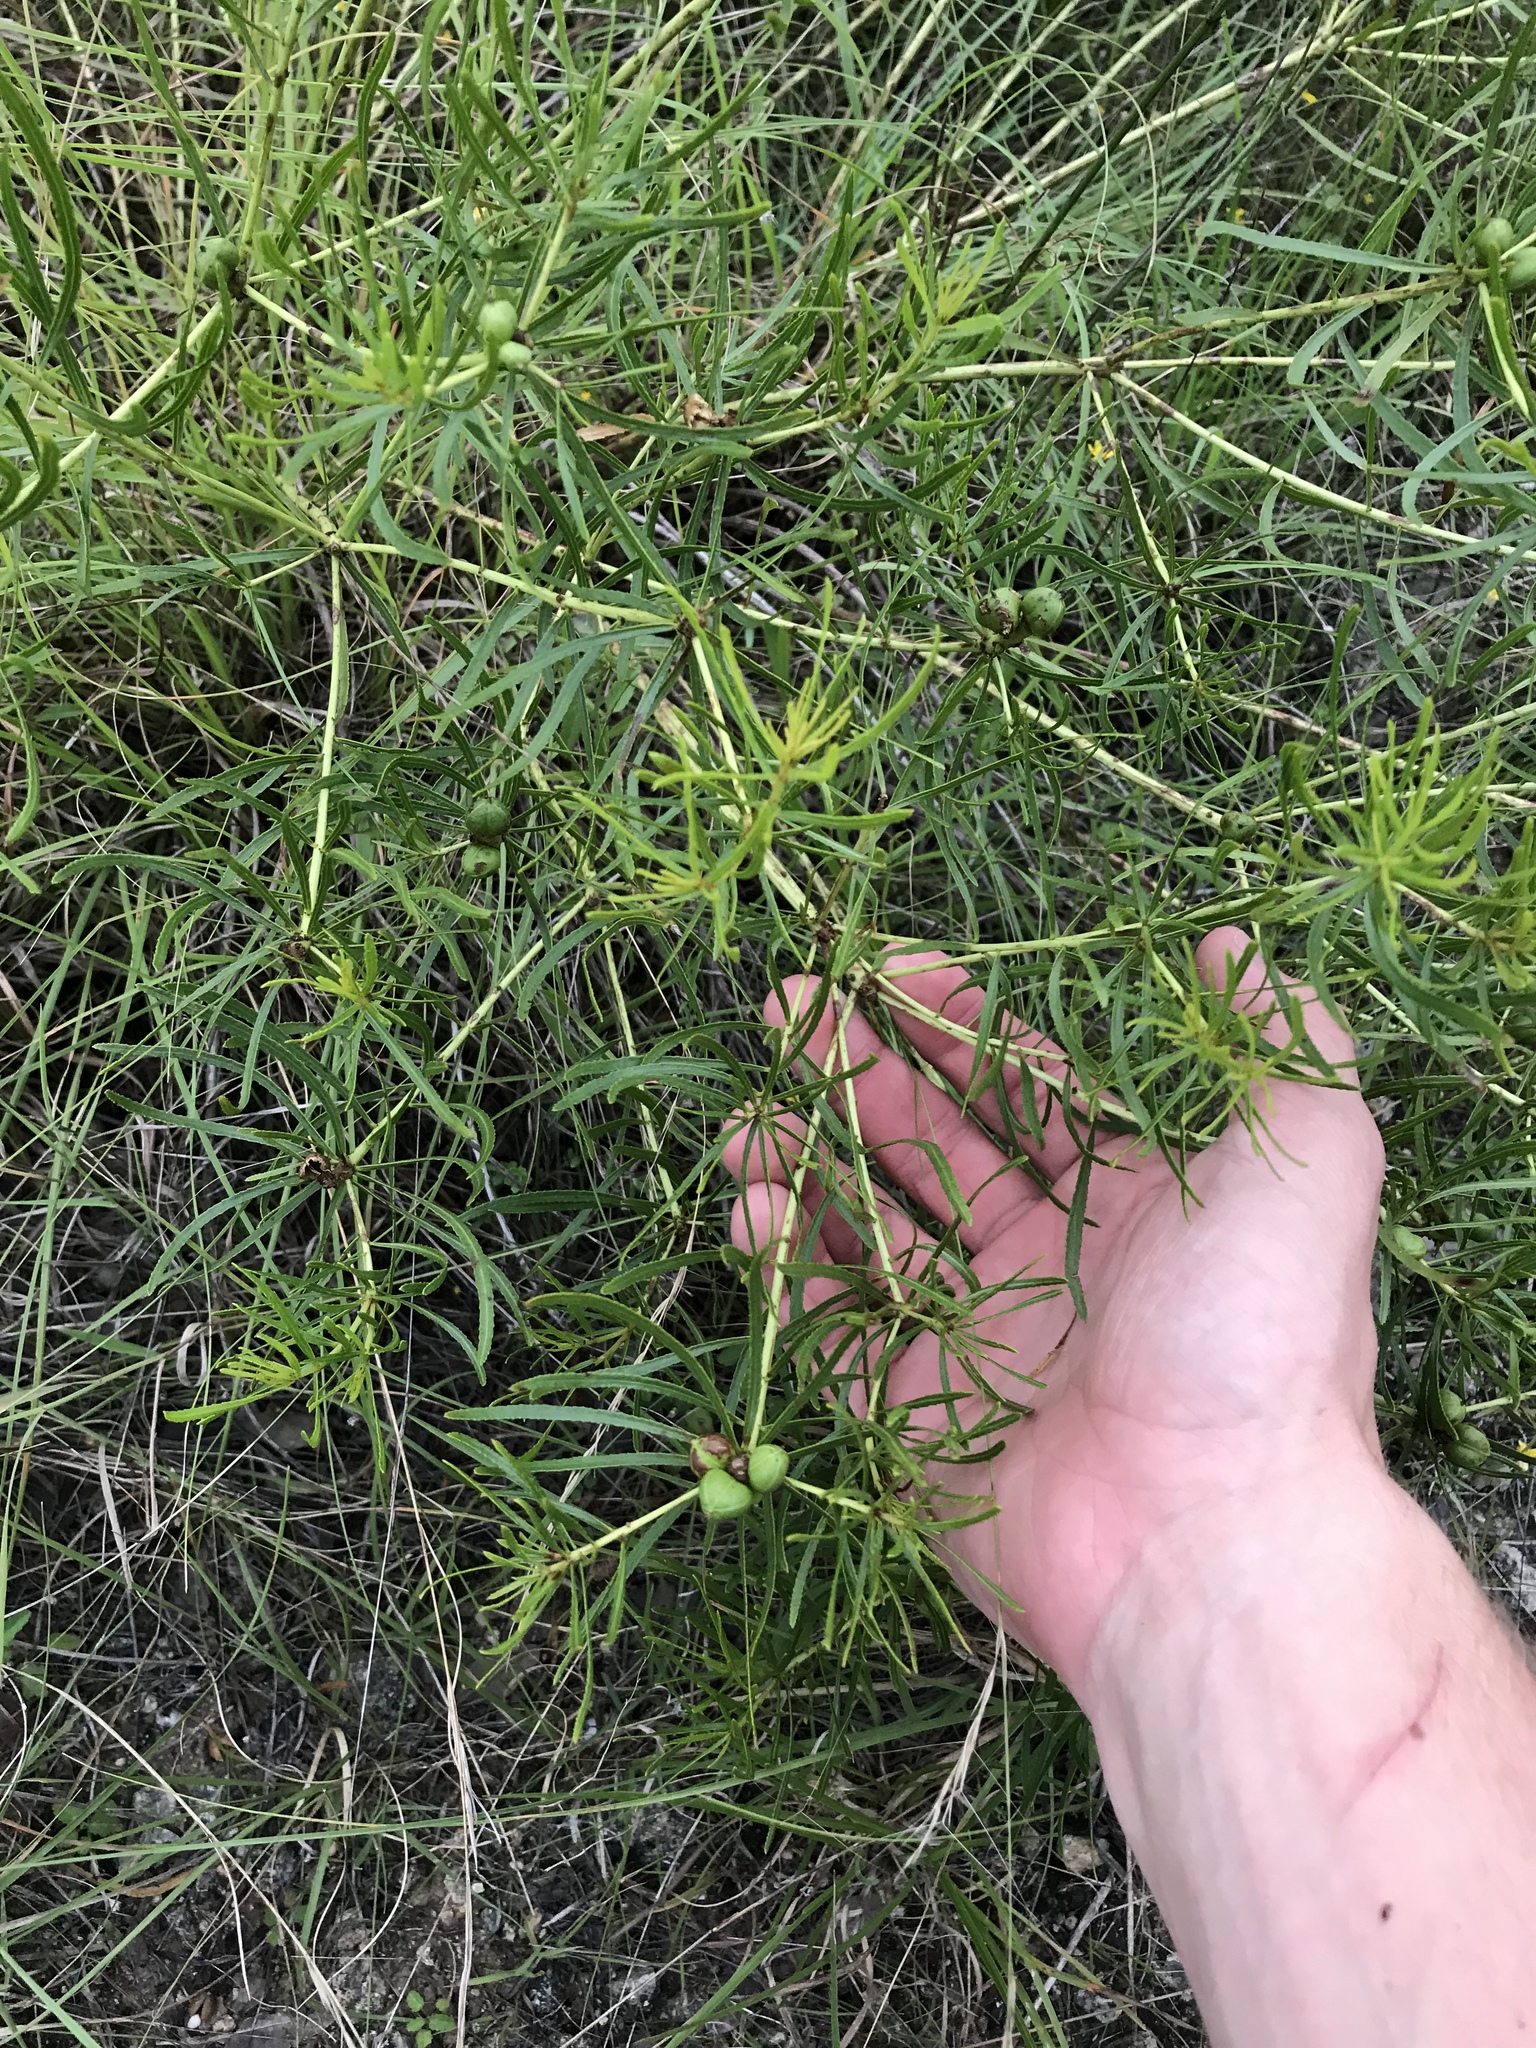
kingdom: Plantae
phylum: Tracheophyta
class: Magnoliopsida
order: Malpighiales
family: Euphorbiaceae
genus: Stillingia
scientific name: Stillingia texana
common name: Texas stillingia
